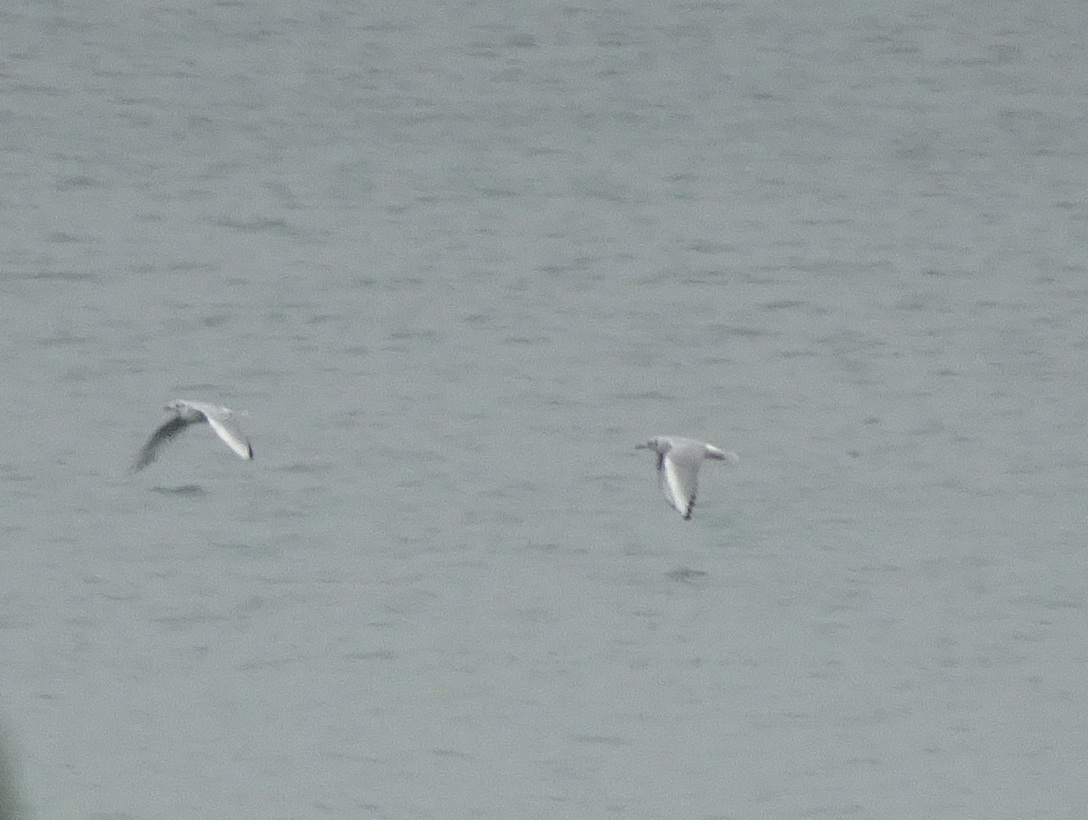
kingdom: Animalia
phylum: Chordata
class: Aves
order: Charadriiformes
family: Laridae
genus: Chroicocephalus
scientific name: Chroicocephalus philadelphia
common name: Bonaparte's gull
